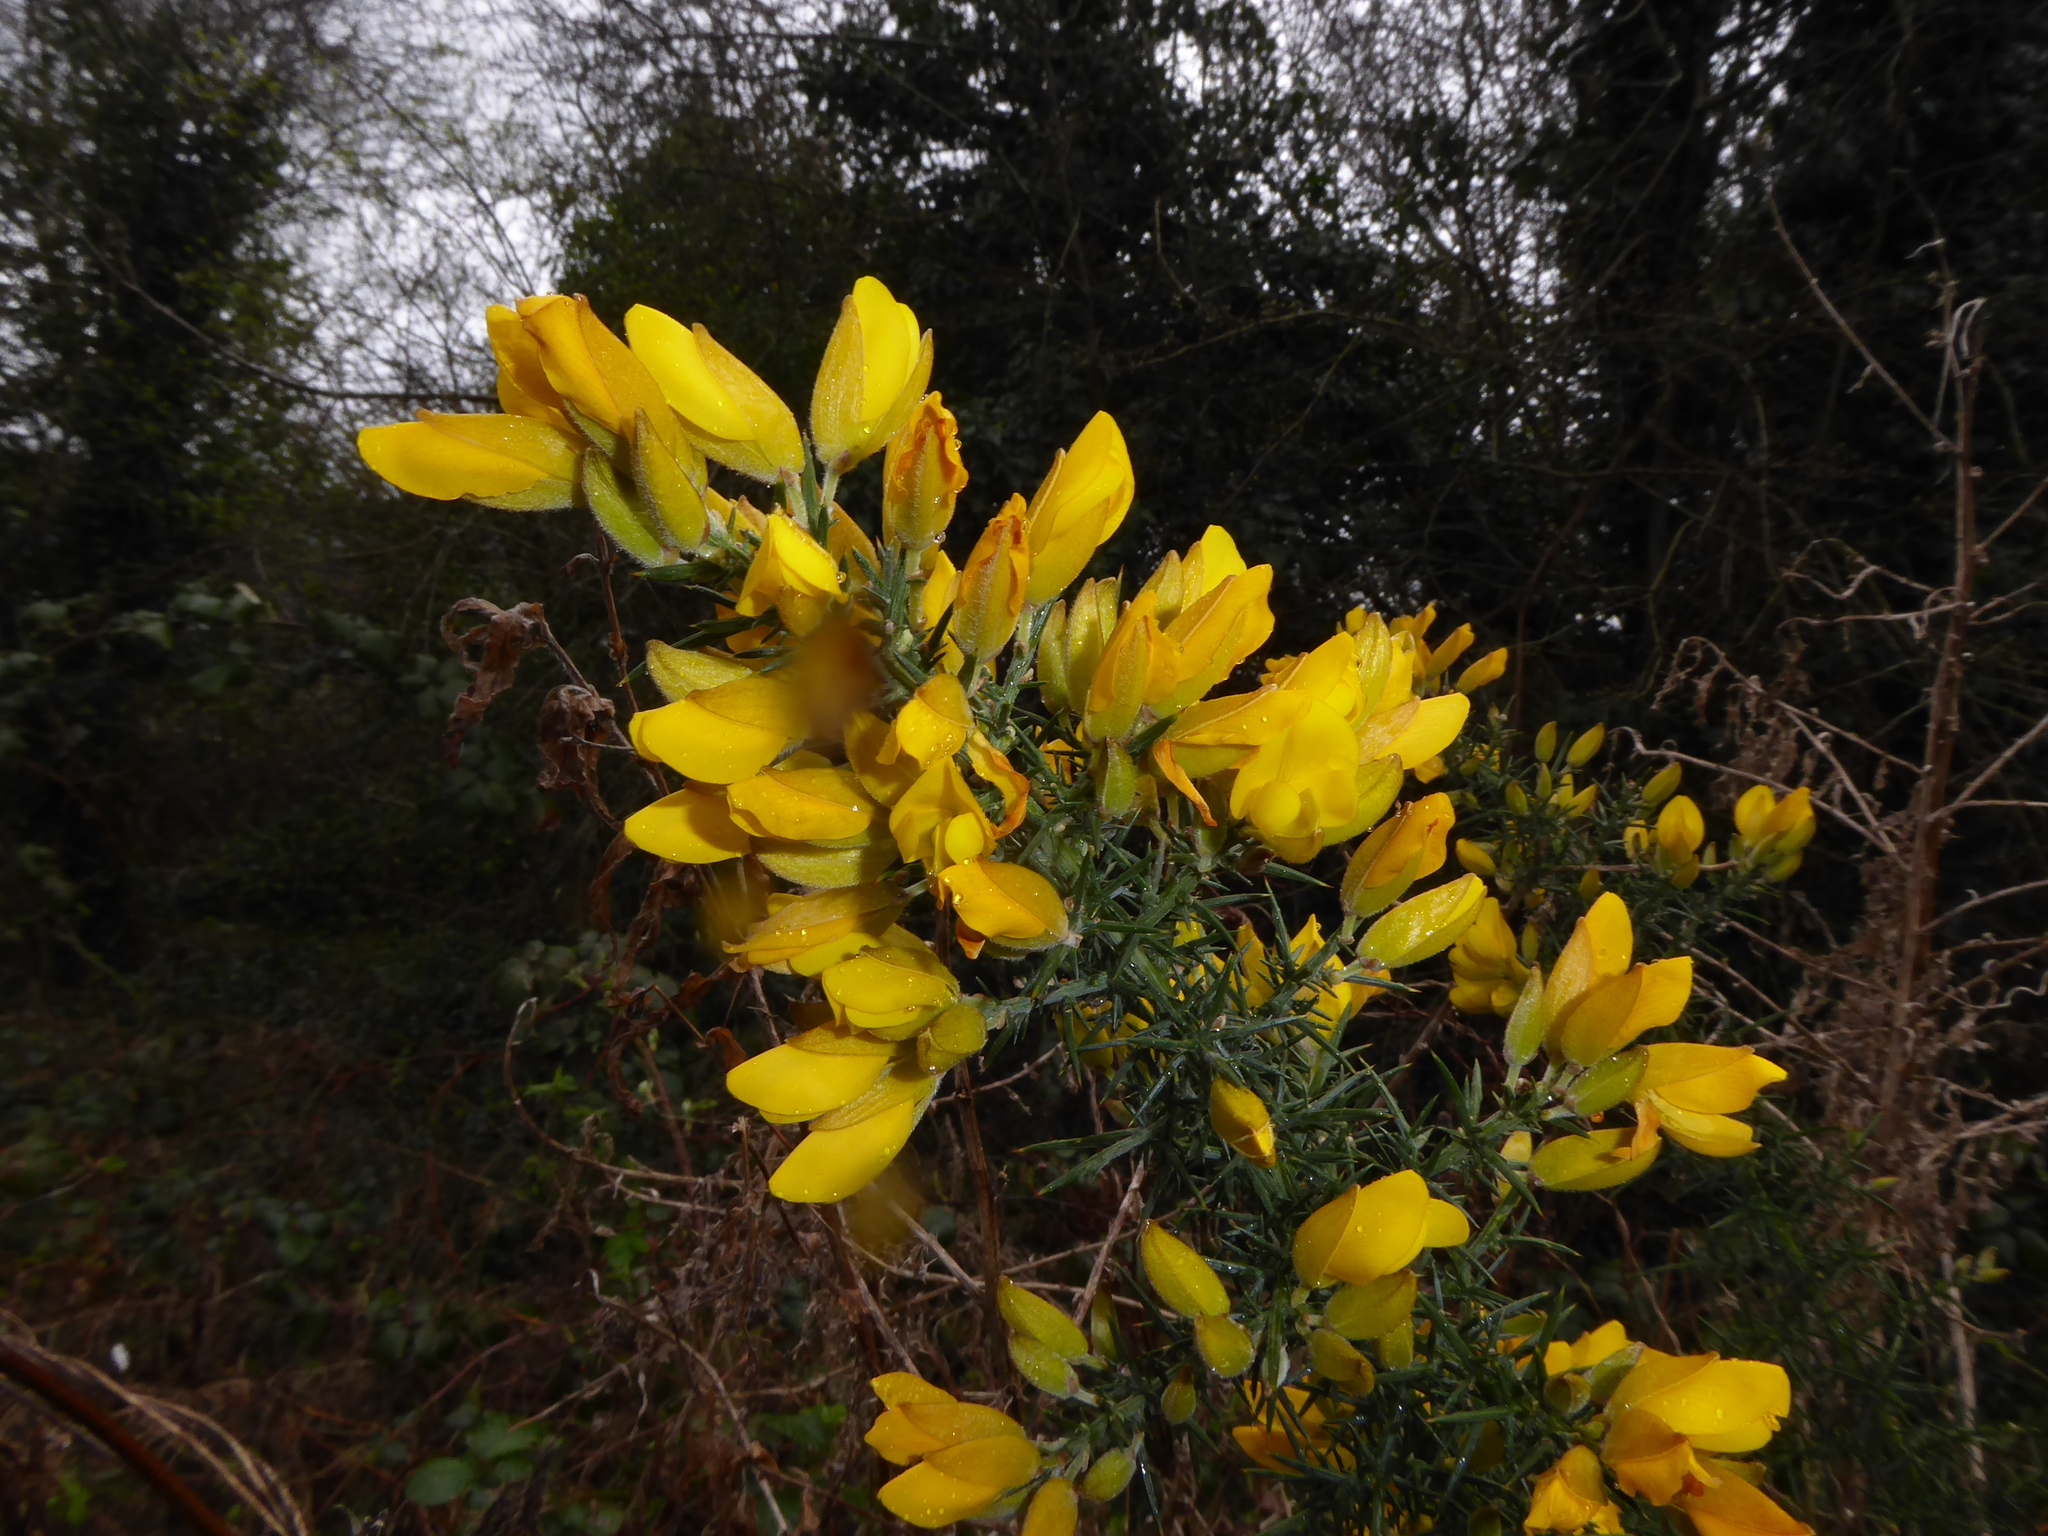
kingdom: Plantae
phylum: Tracheophyta
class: Magnoliopsida
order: Fabales
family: Fabaceae
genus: Ulex
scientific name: Ulex europaeus
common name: Common gorse
